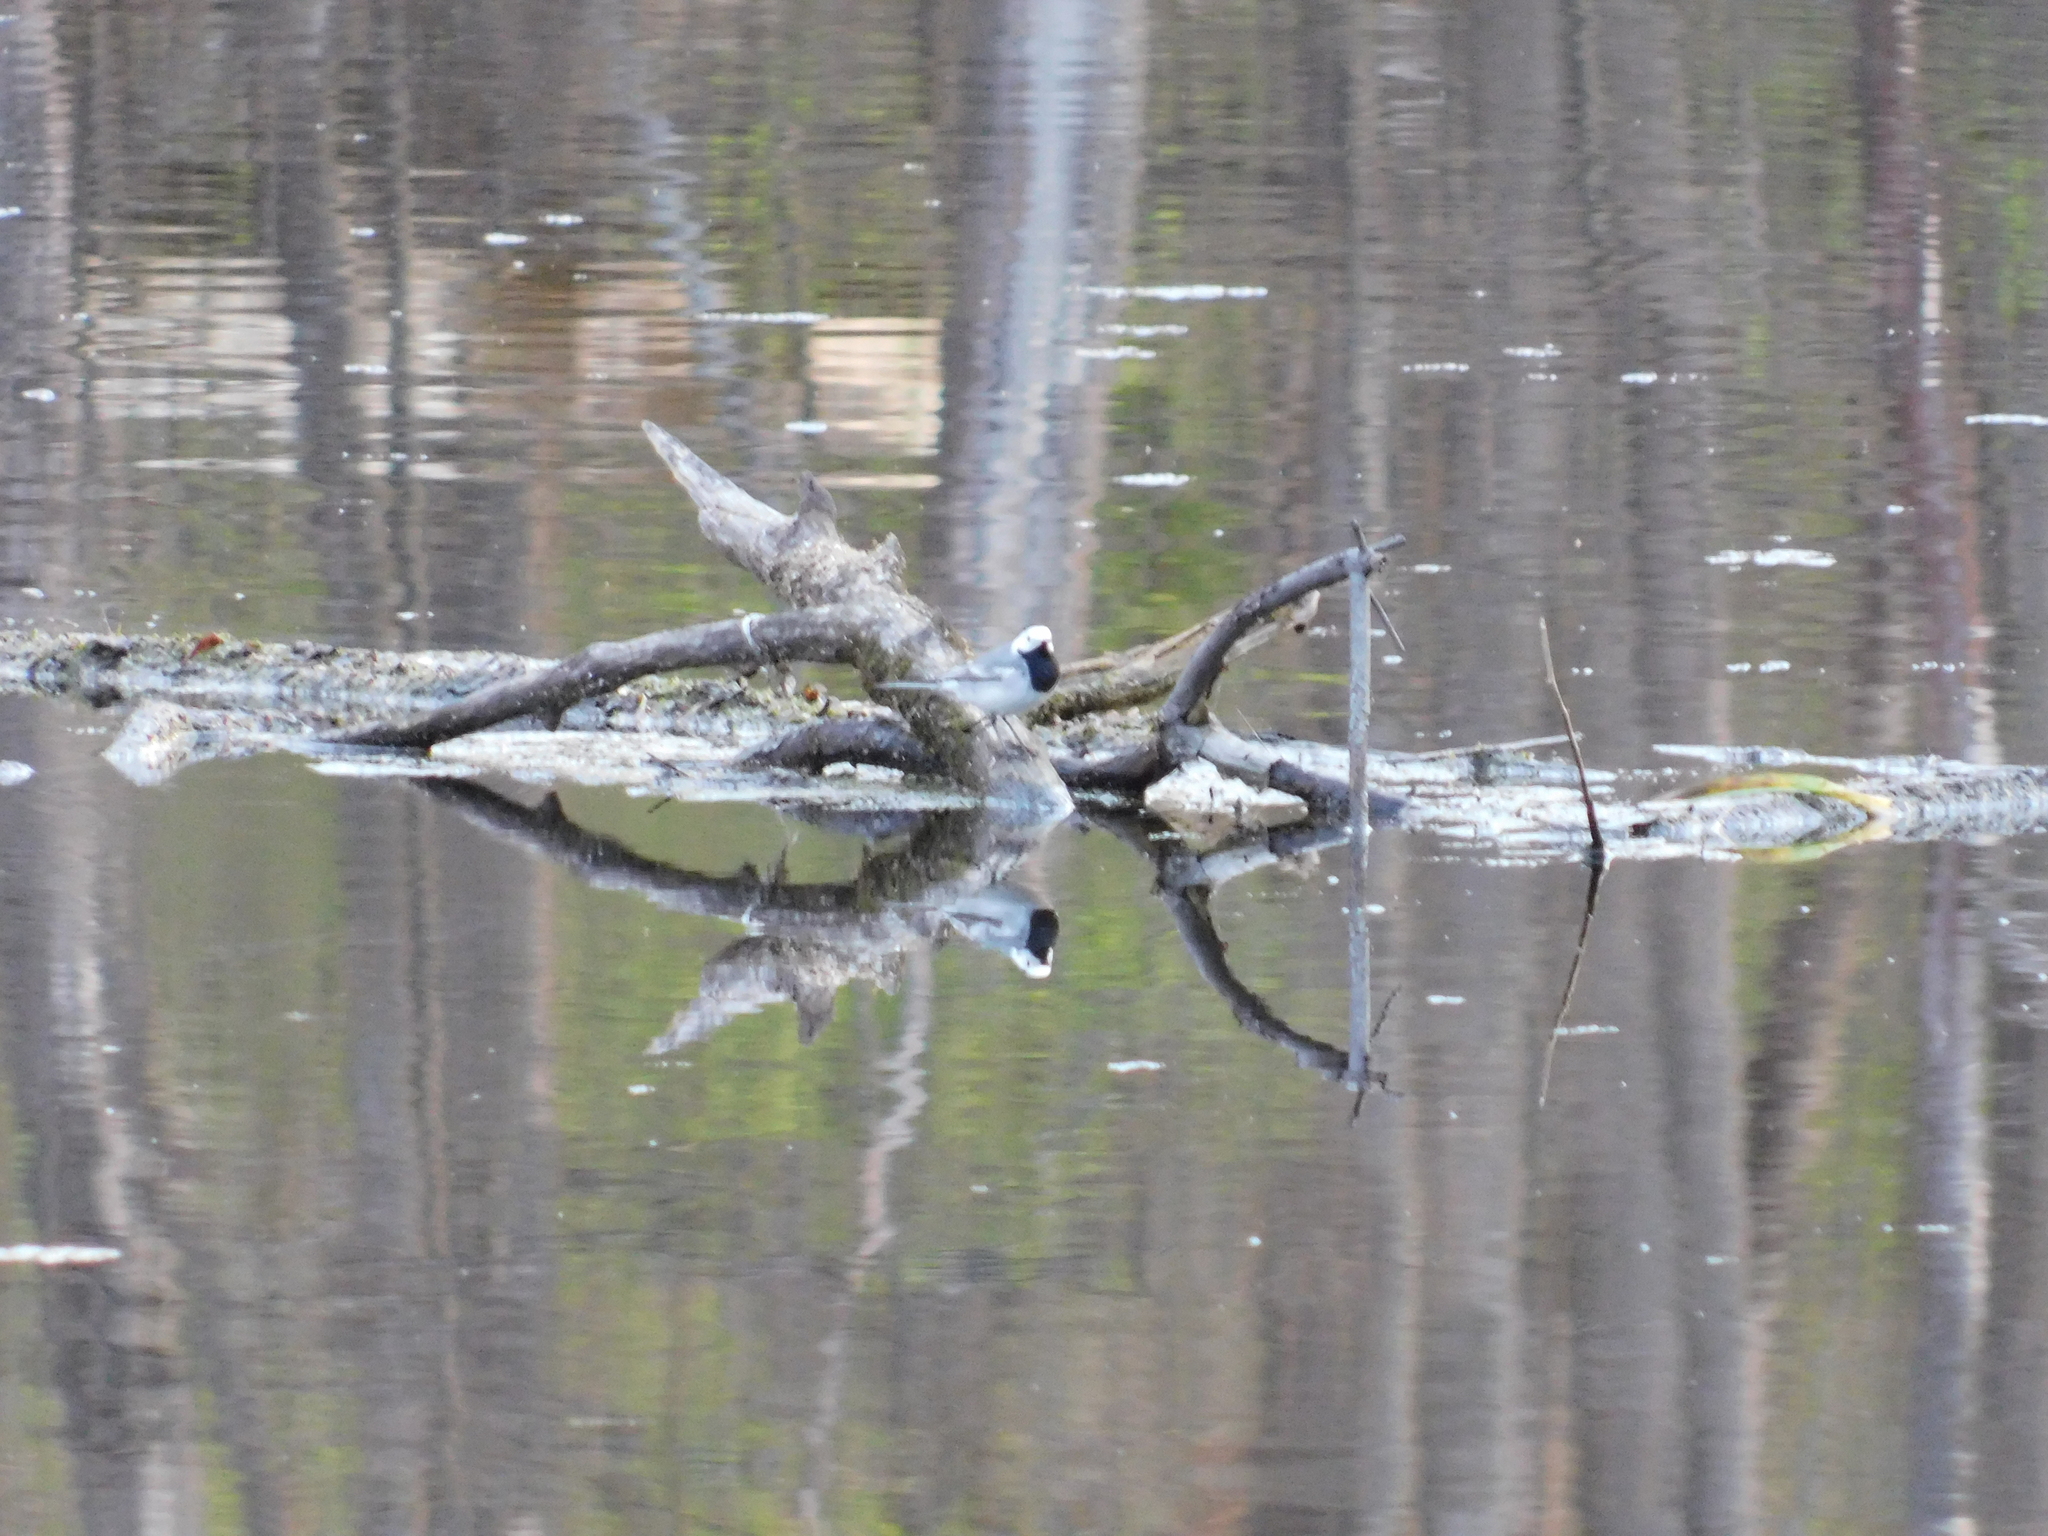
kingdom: Animalia
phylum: Chordata
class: Aves
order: Passeriformes
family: Motacillidae
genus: Motacilla
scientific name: Motacilla alba
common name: White wagtail
